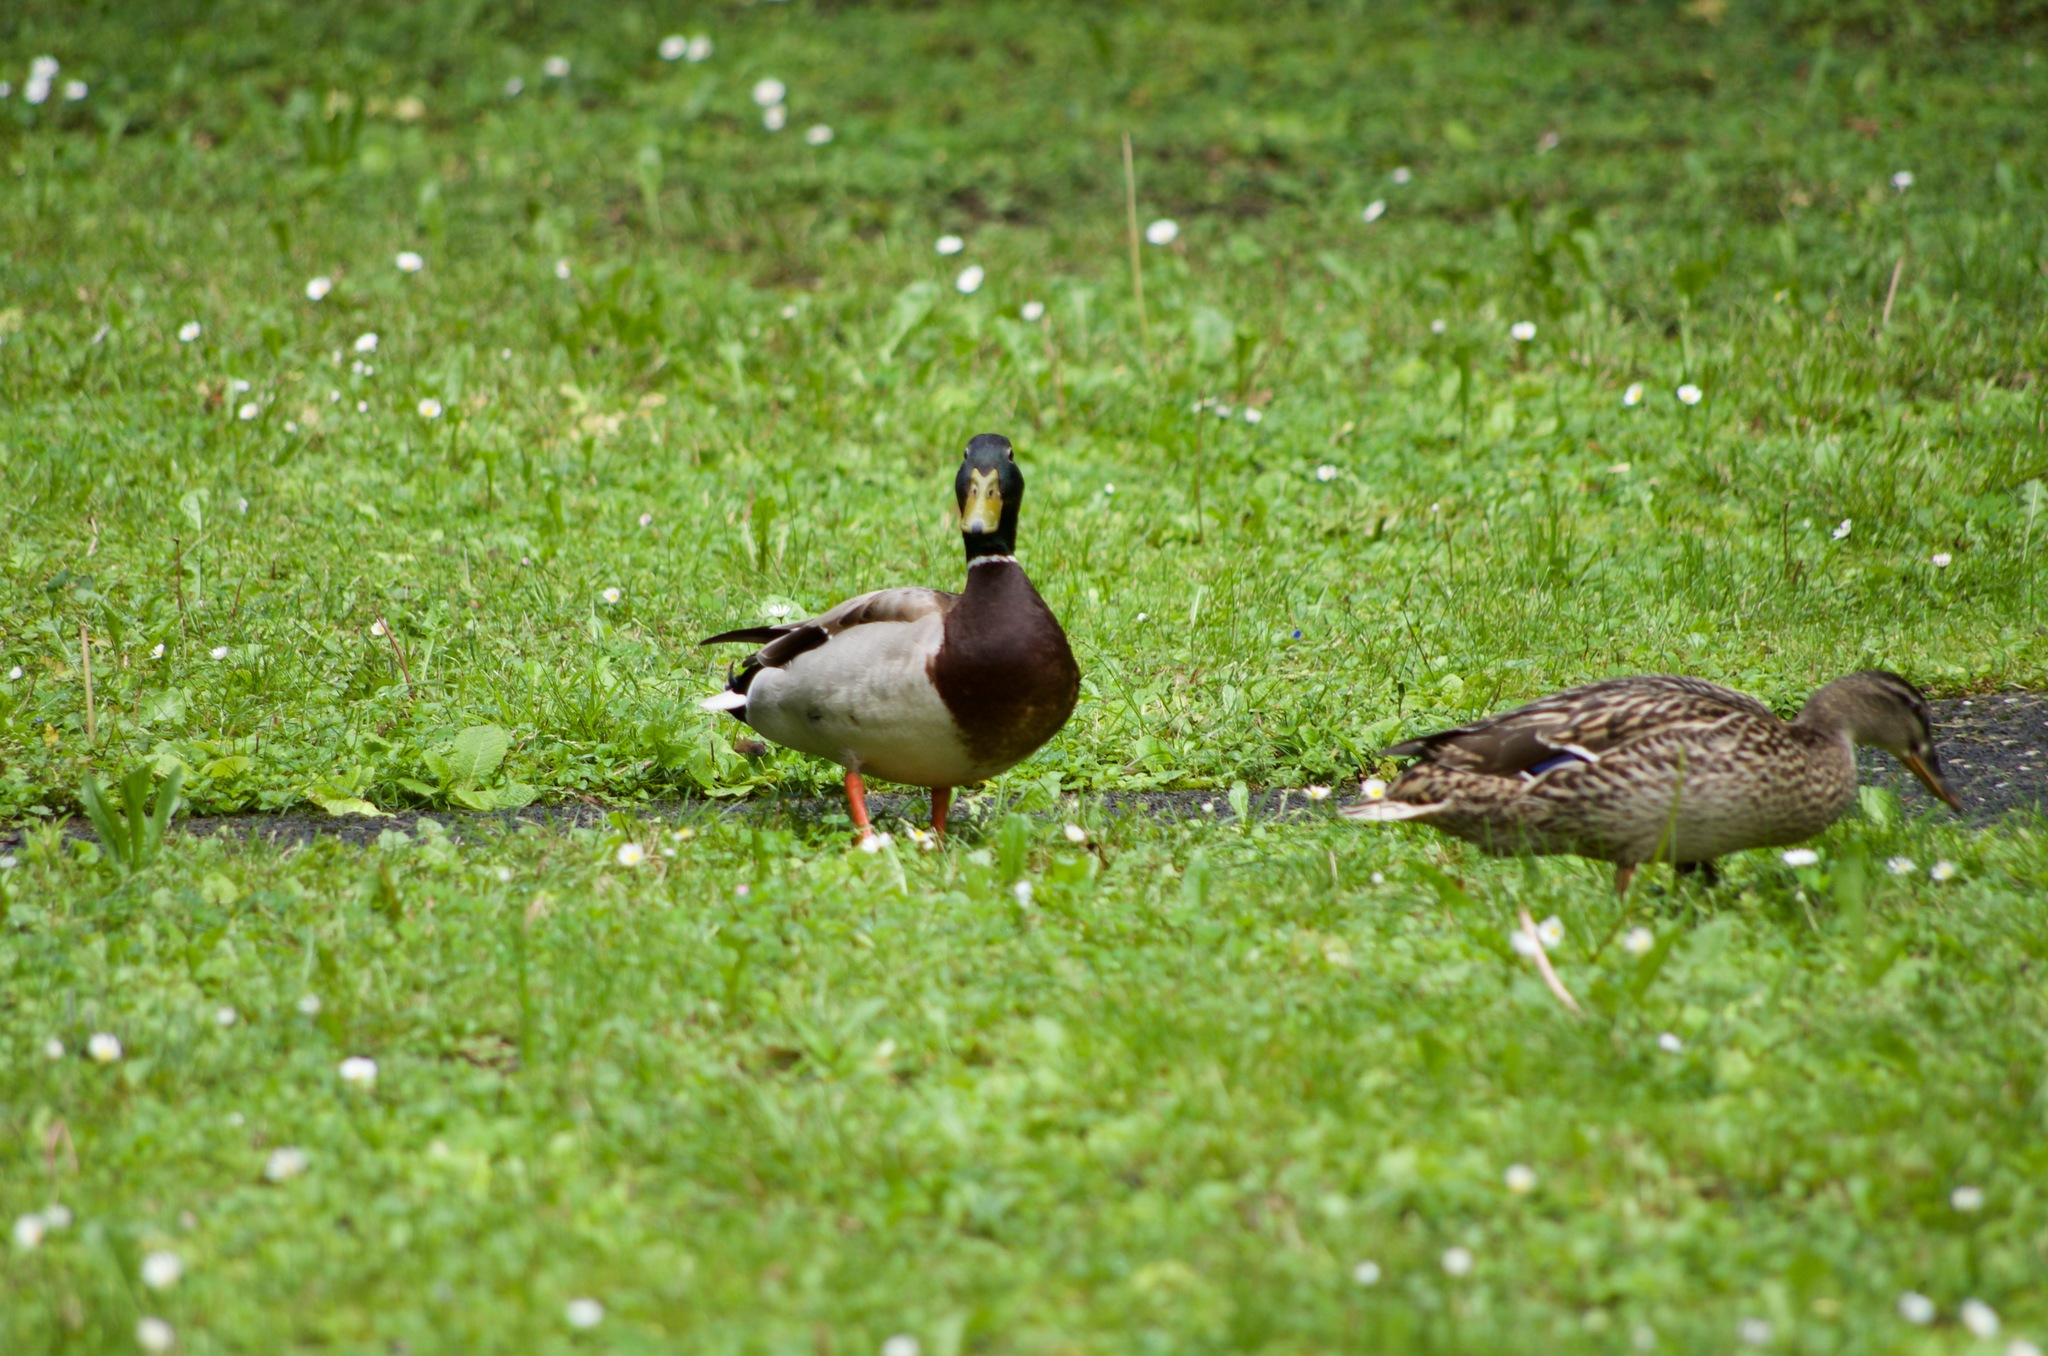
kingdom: Animalia
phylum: Chordata
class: Aves
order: Anseriformes
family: Anatidae
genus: Anas
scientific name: Anas platyrhynchos
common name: Mallard
